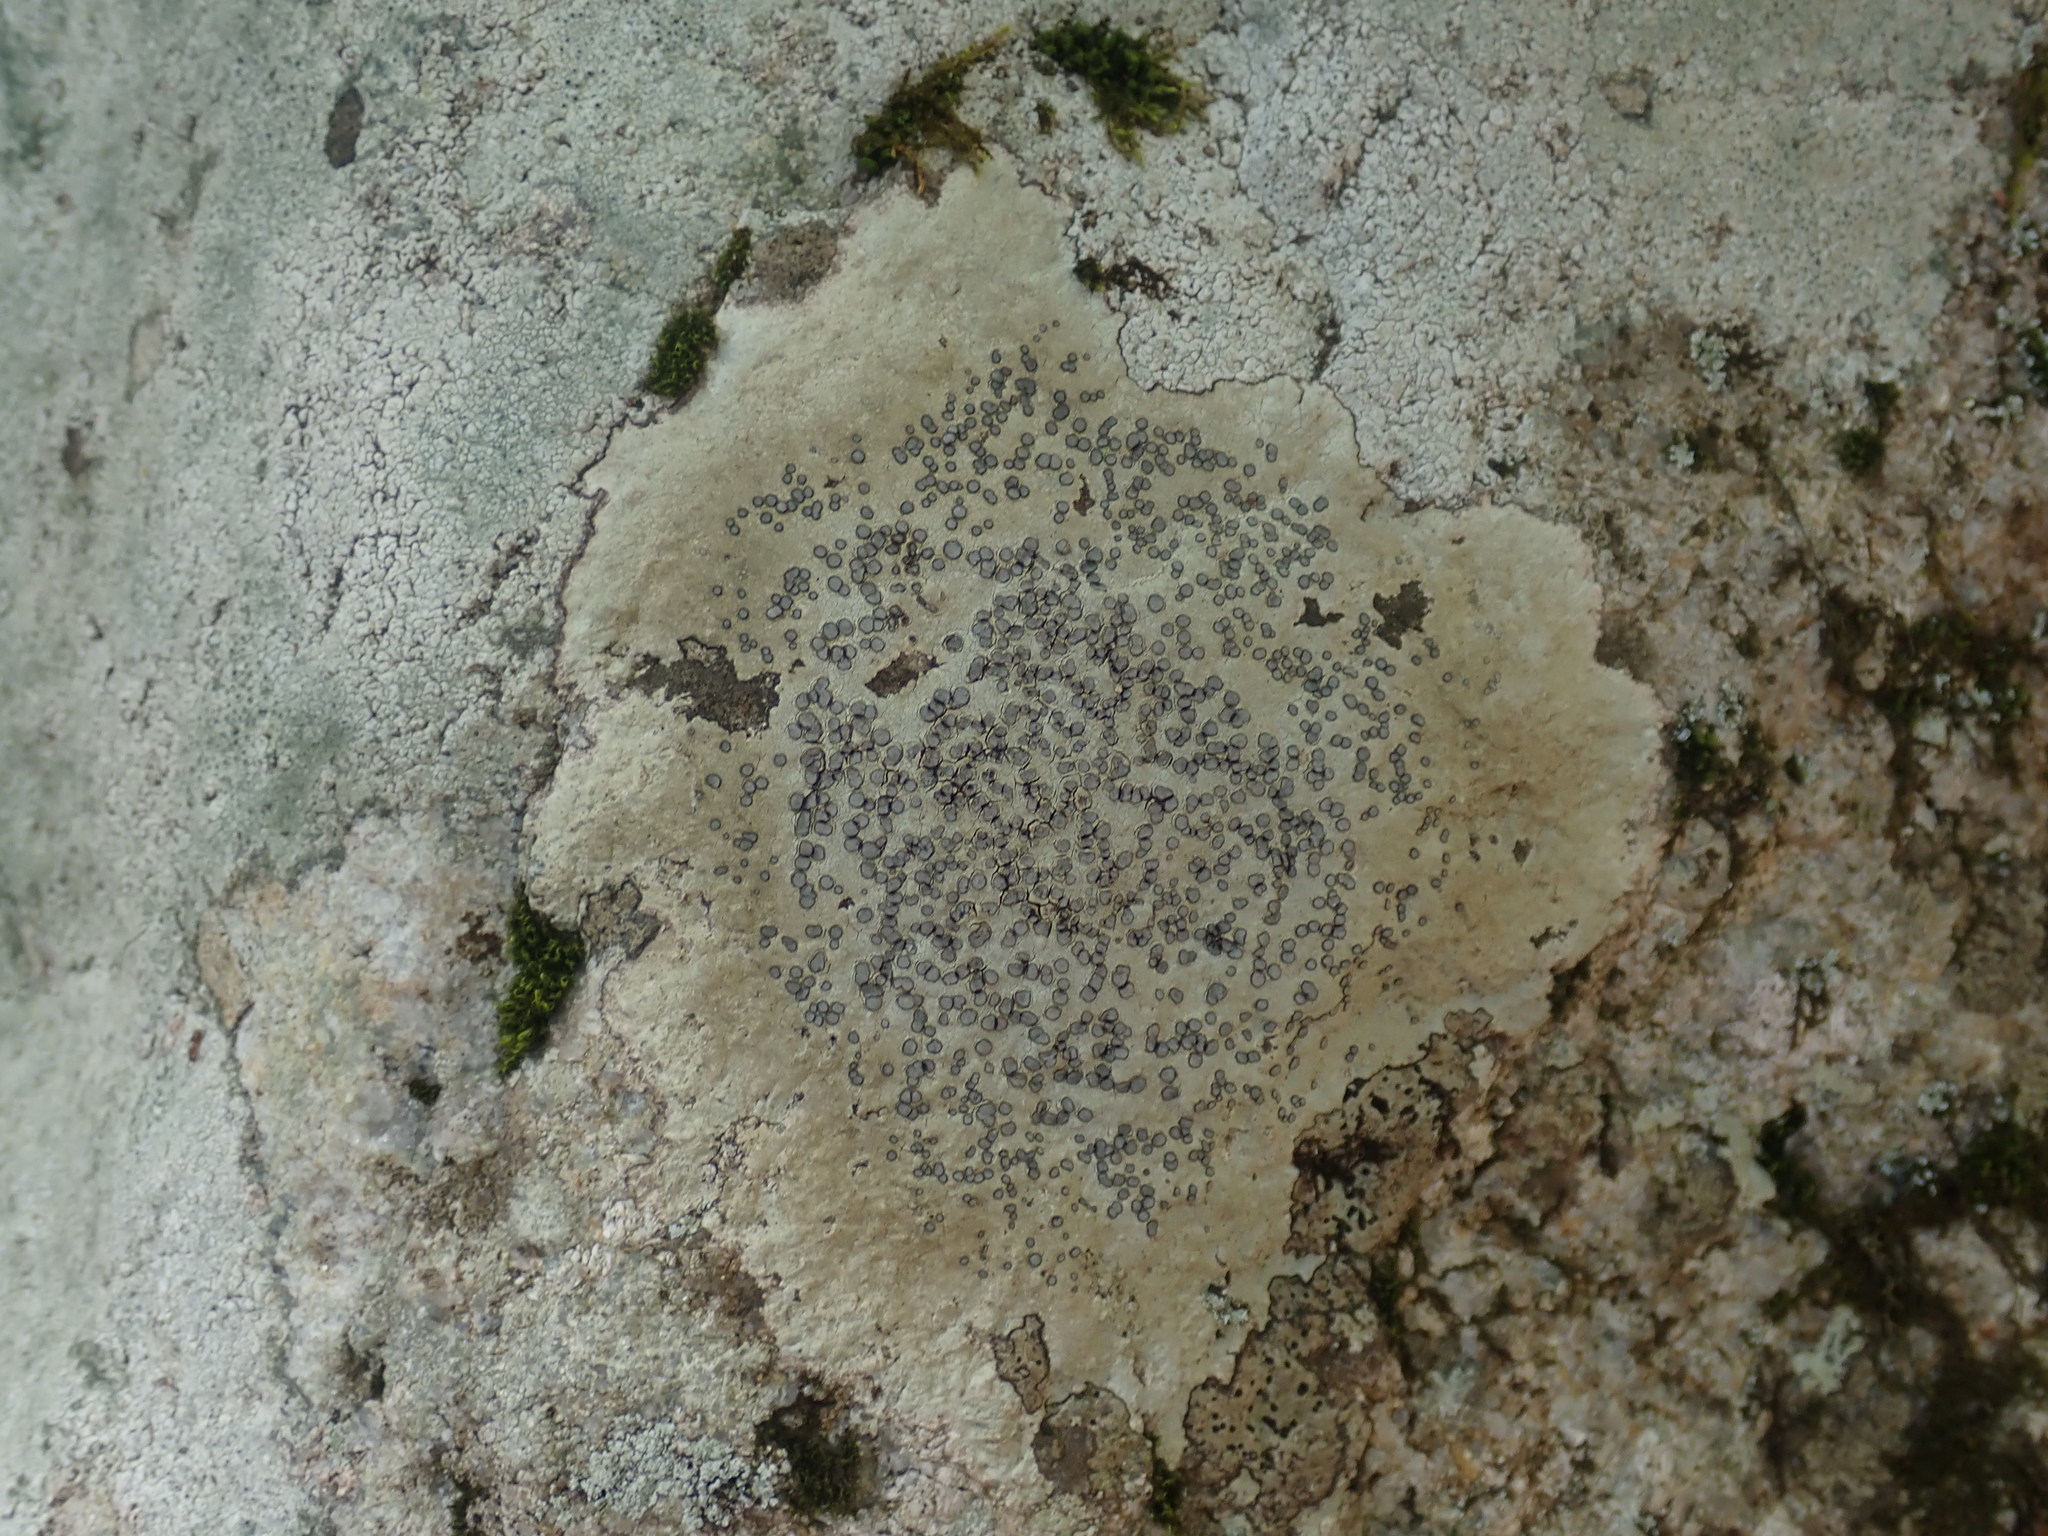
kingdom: Fungi
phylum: Ascomycota
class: Lecanoromycetes
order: Lecideales
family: Lecideaceae
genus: Porpidia
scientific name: Porpidia albocaerulescens
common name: Smokey-eyed boulder lichen
